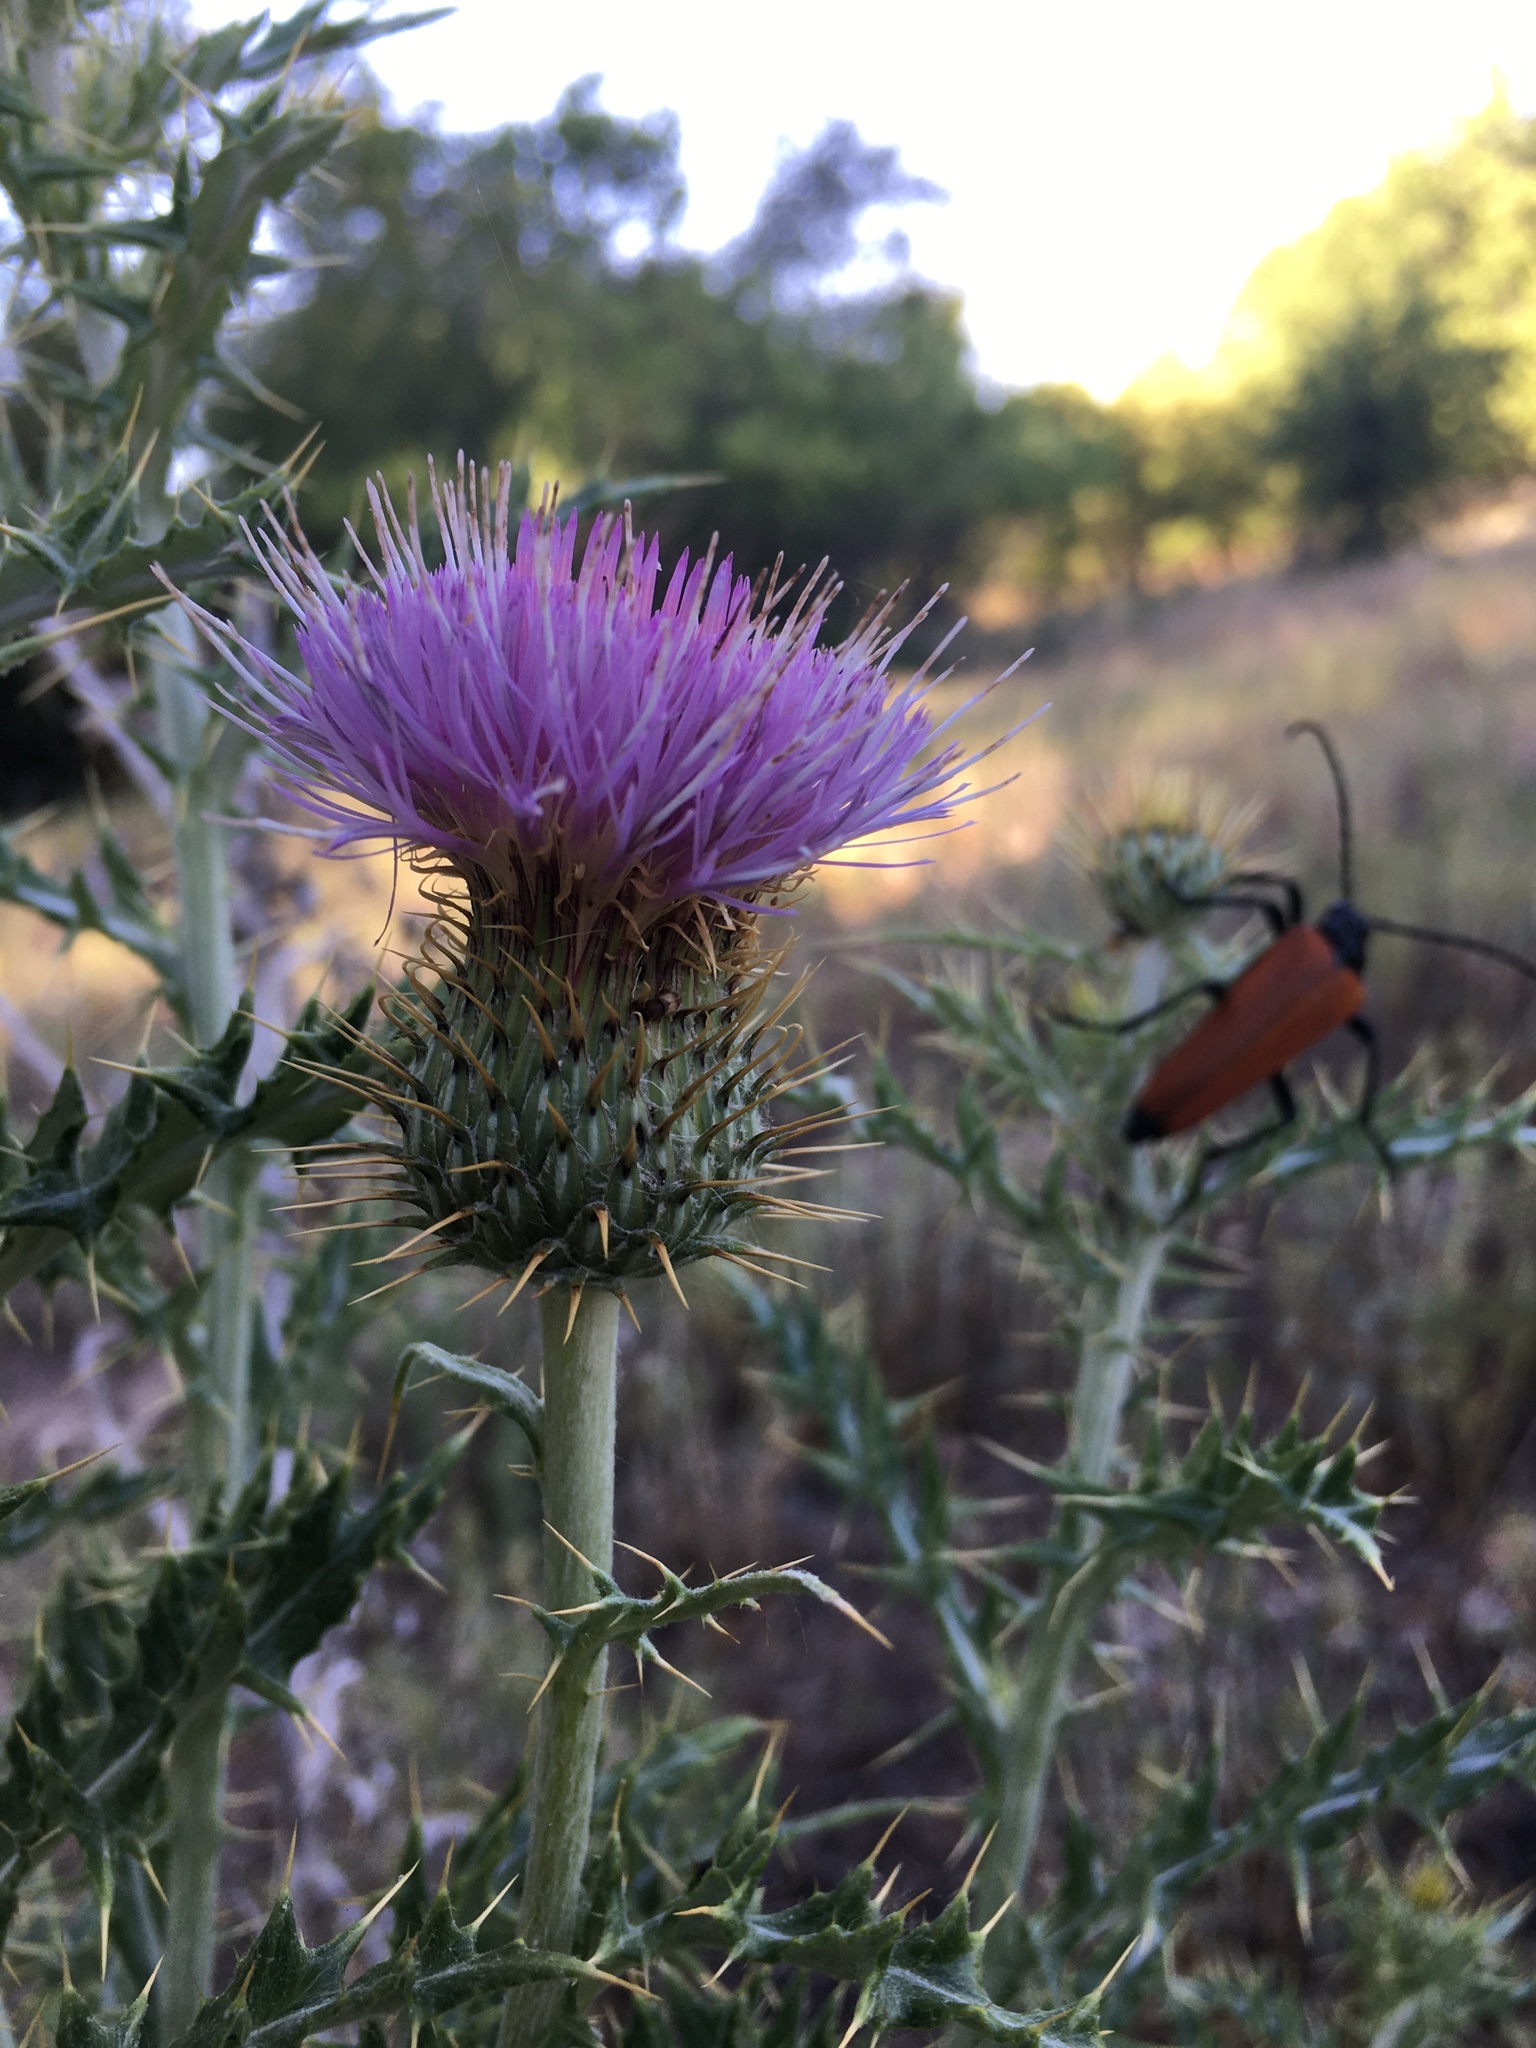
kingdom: Plantae
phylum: Tracheophyta
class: Magnoliopsida
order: Asterales
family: Asteraceae
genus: Cirsium
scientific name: Cirsium ochrocentrum
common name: Yellow-spine thistle
